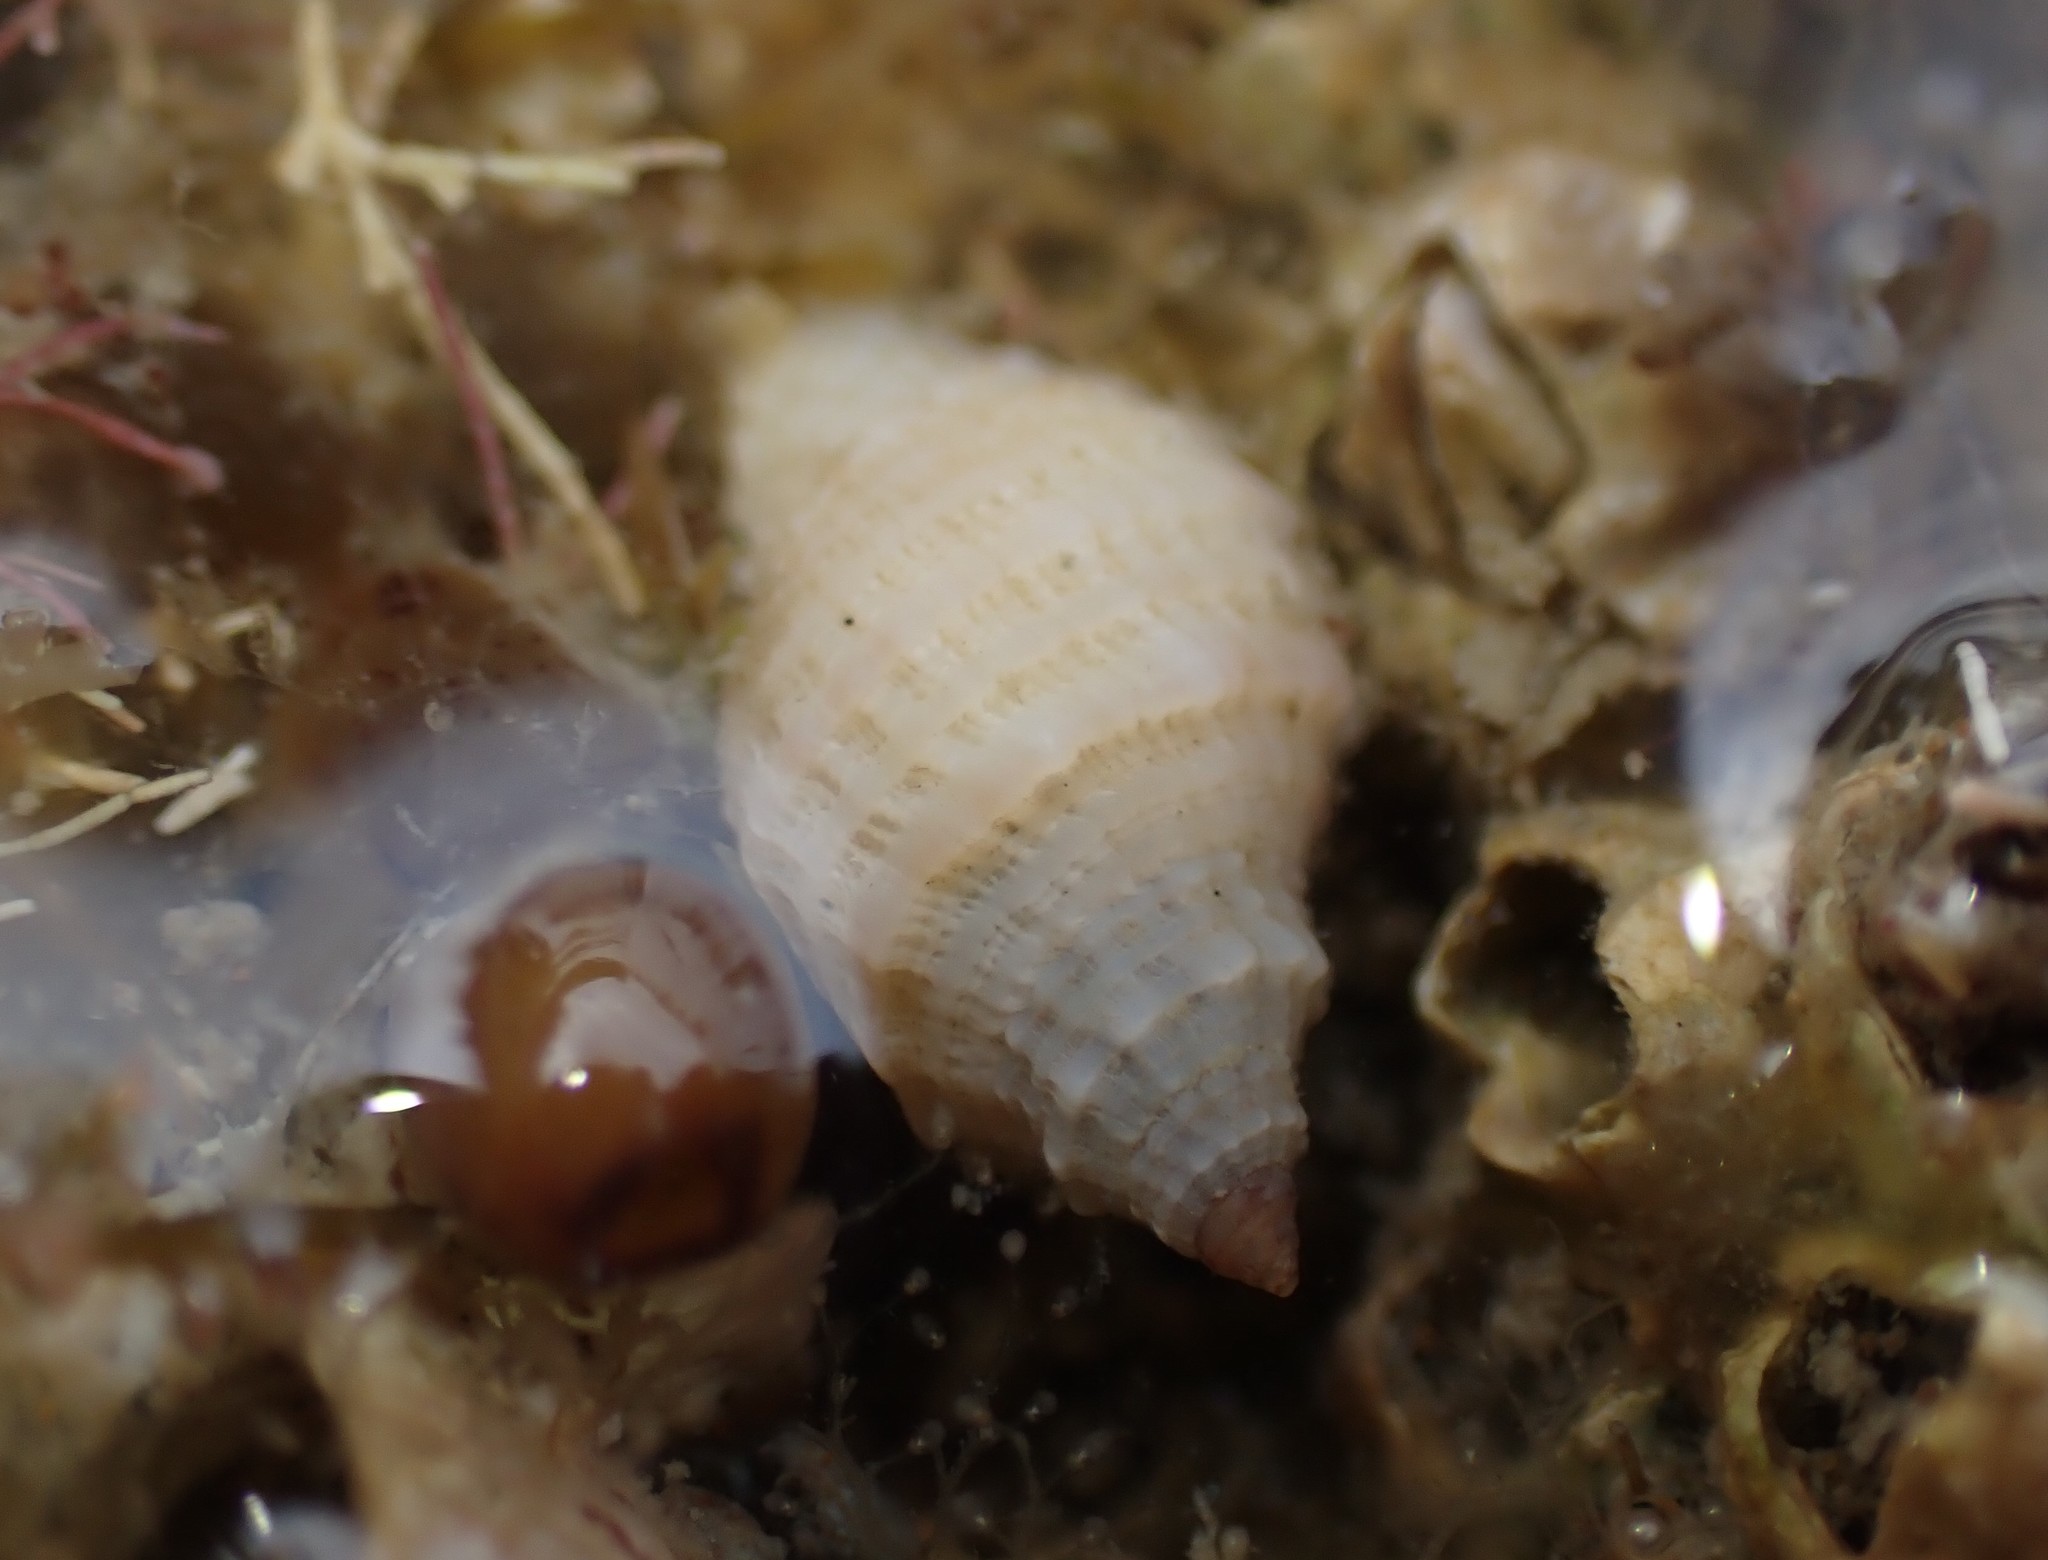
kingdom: Animalia
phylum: Mollusca
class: Gastropoda
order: Neogastropoda
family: Muricidae
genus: Dicathais
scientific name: Dicathais orbita
